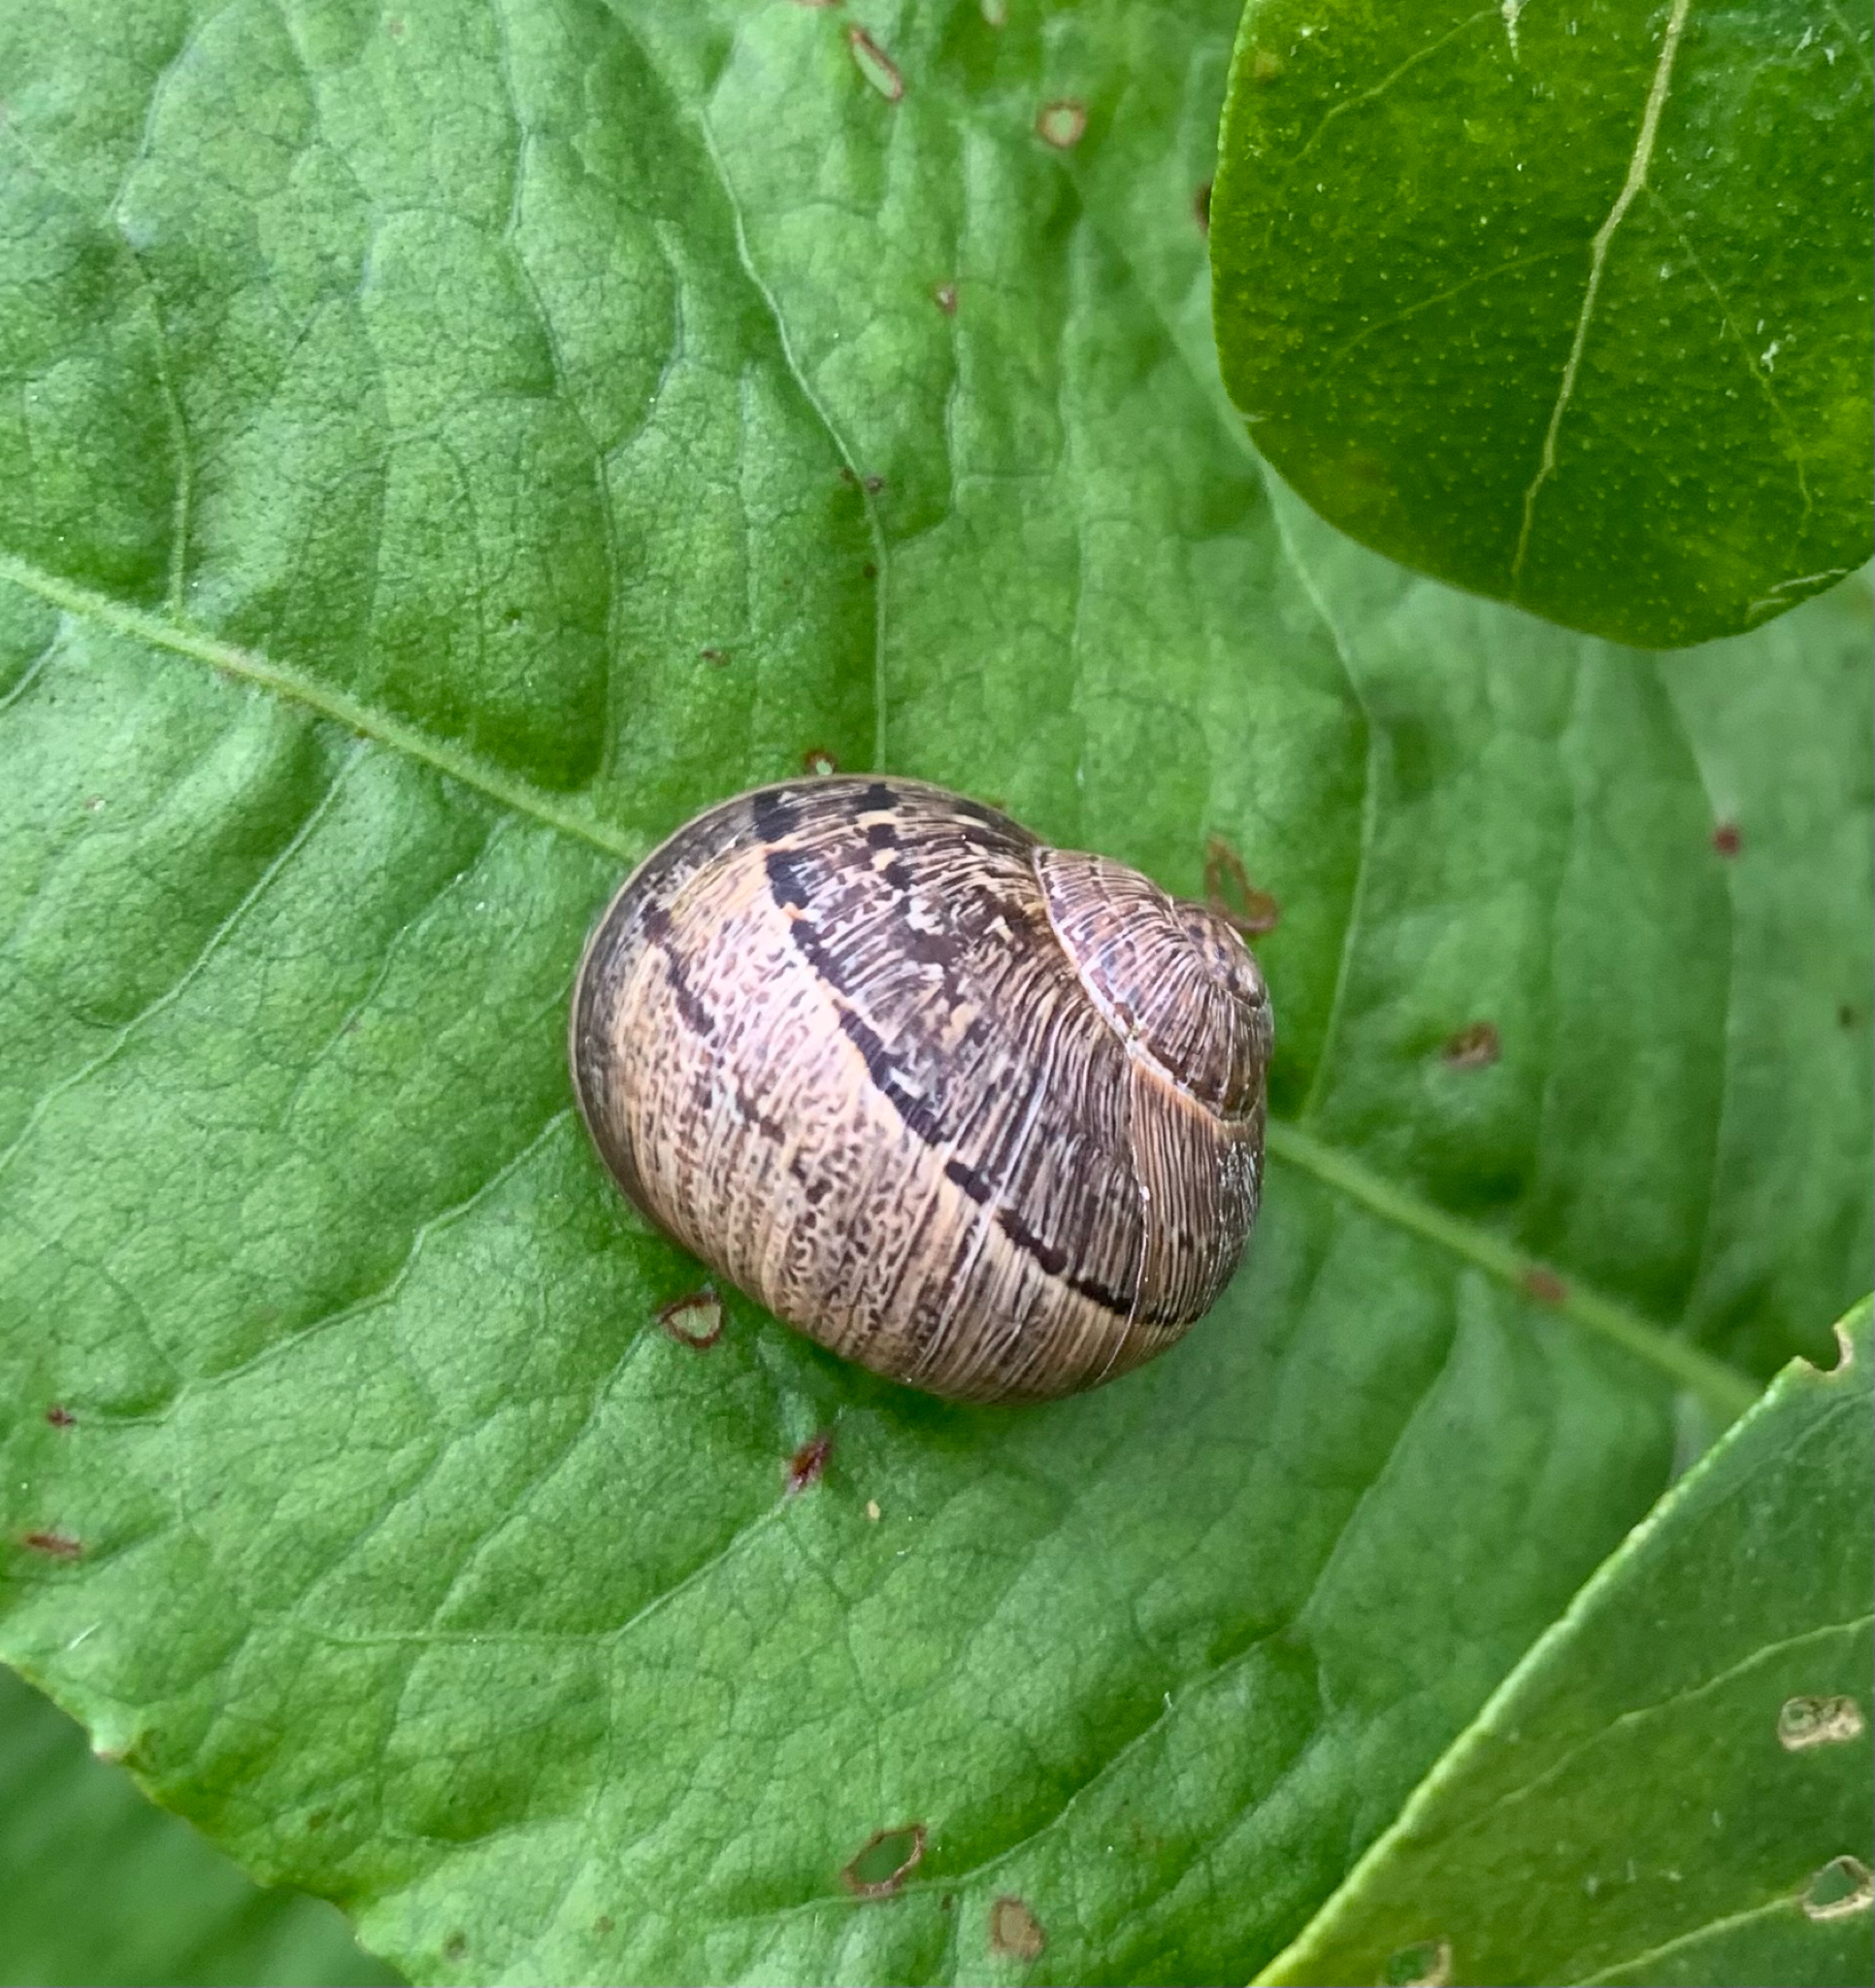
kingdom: Animalia
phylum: Mollusca
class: Gastropoda
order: Stylommatophora
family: Helicidae
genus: Cornu
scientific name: Cornu aspersum
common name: Brown garden snail
